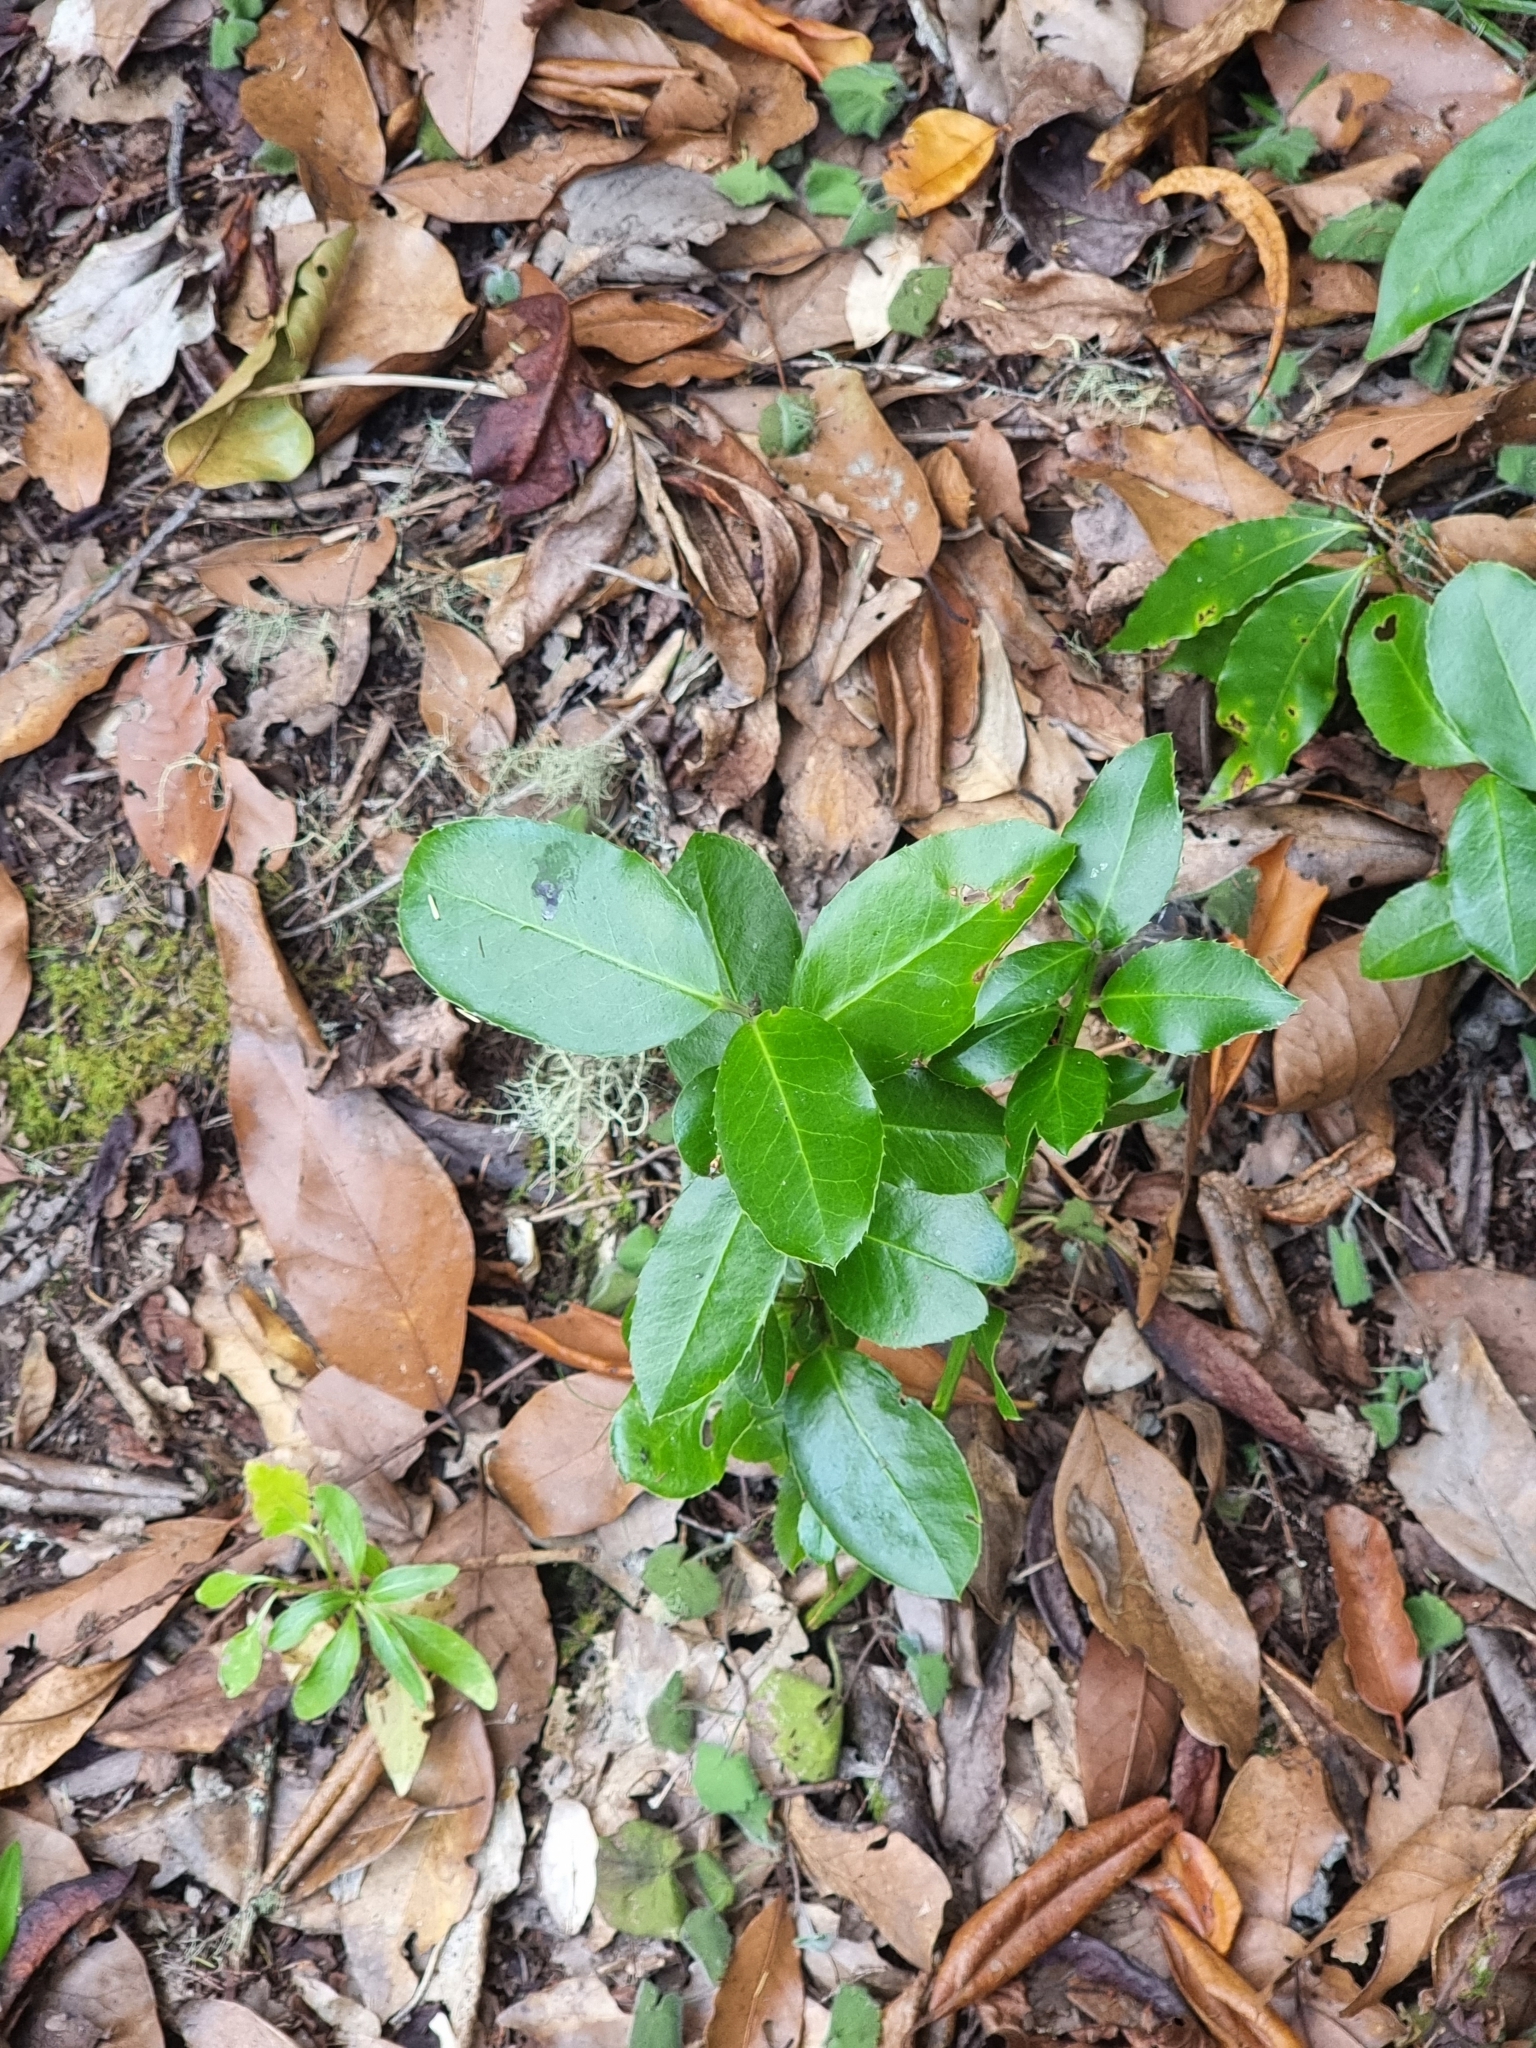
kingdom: Plantae
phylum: Tracheophyta
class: Magnoliopsida
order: Aquifoliales
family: Aquifoliaceae
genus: Ilex
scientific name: Ilex perado
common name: Madeira holly
